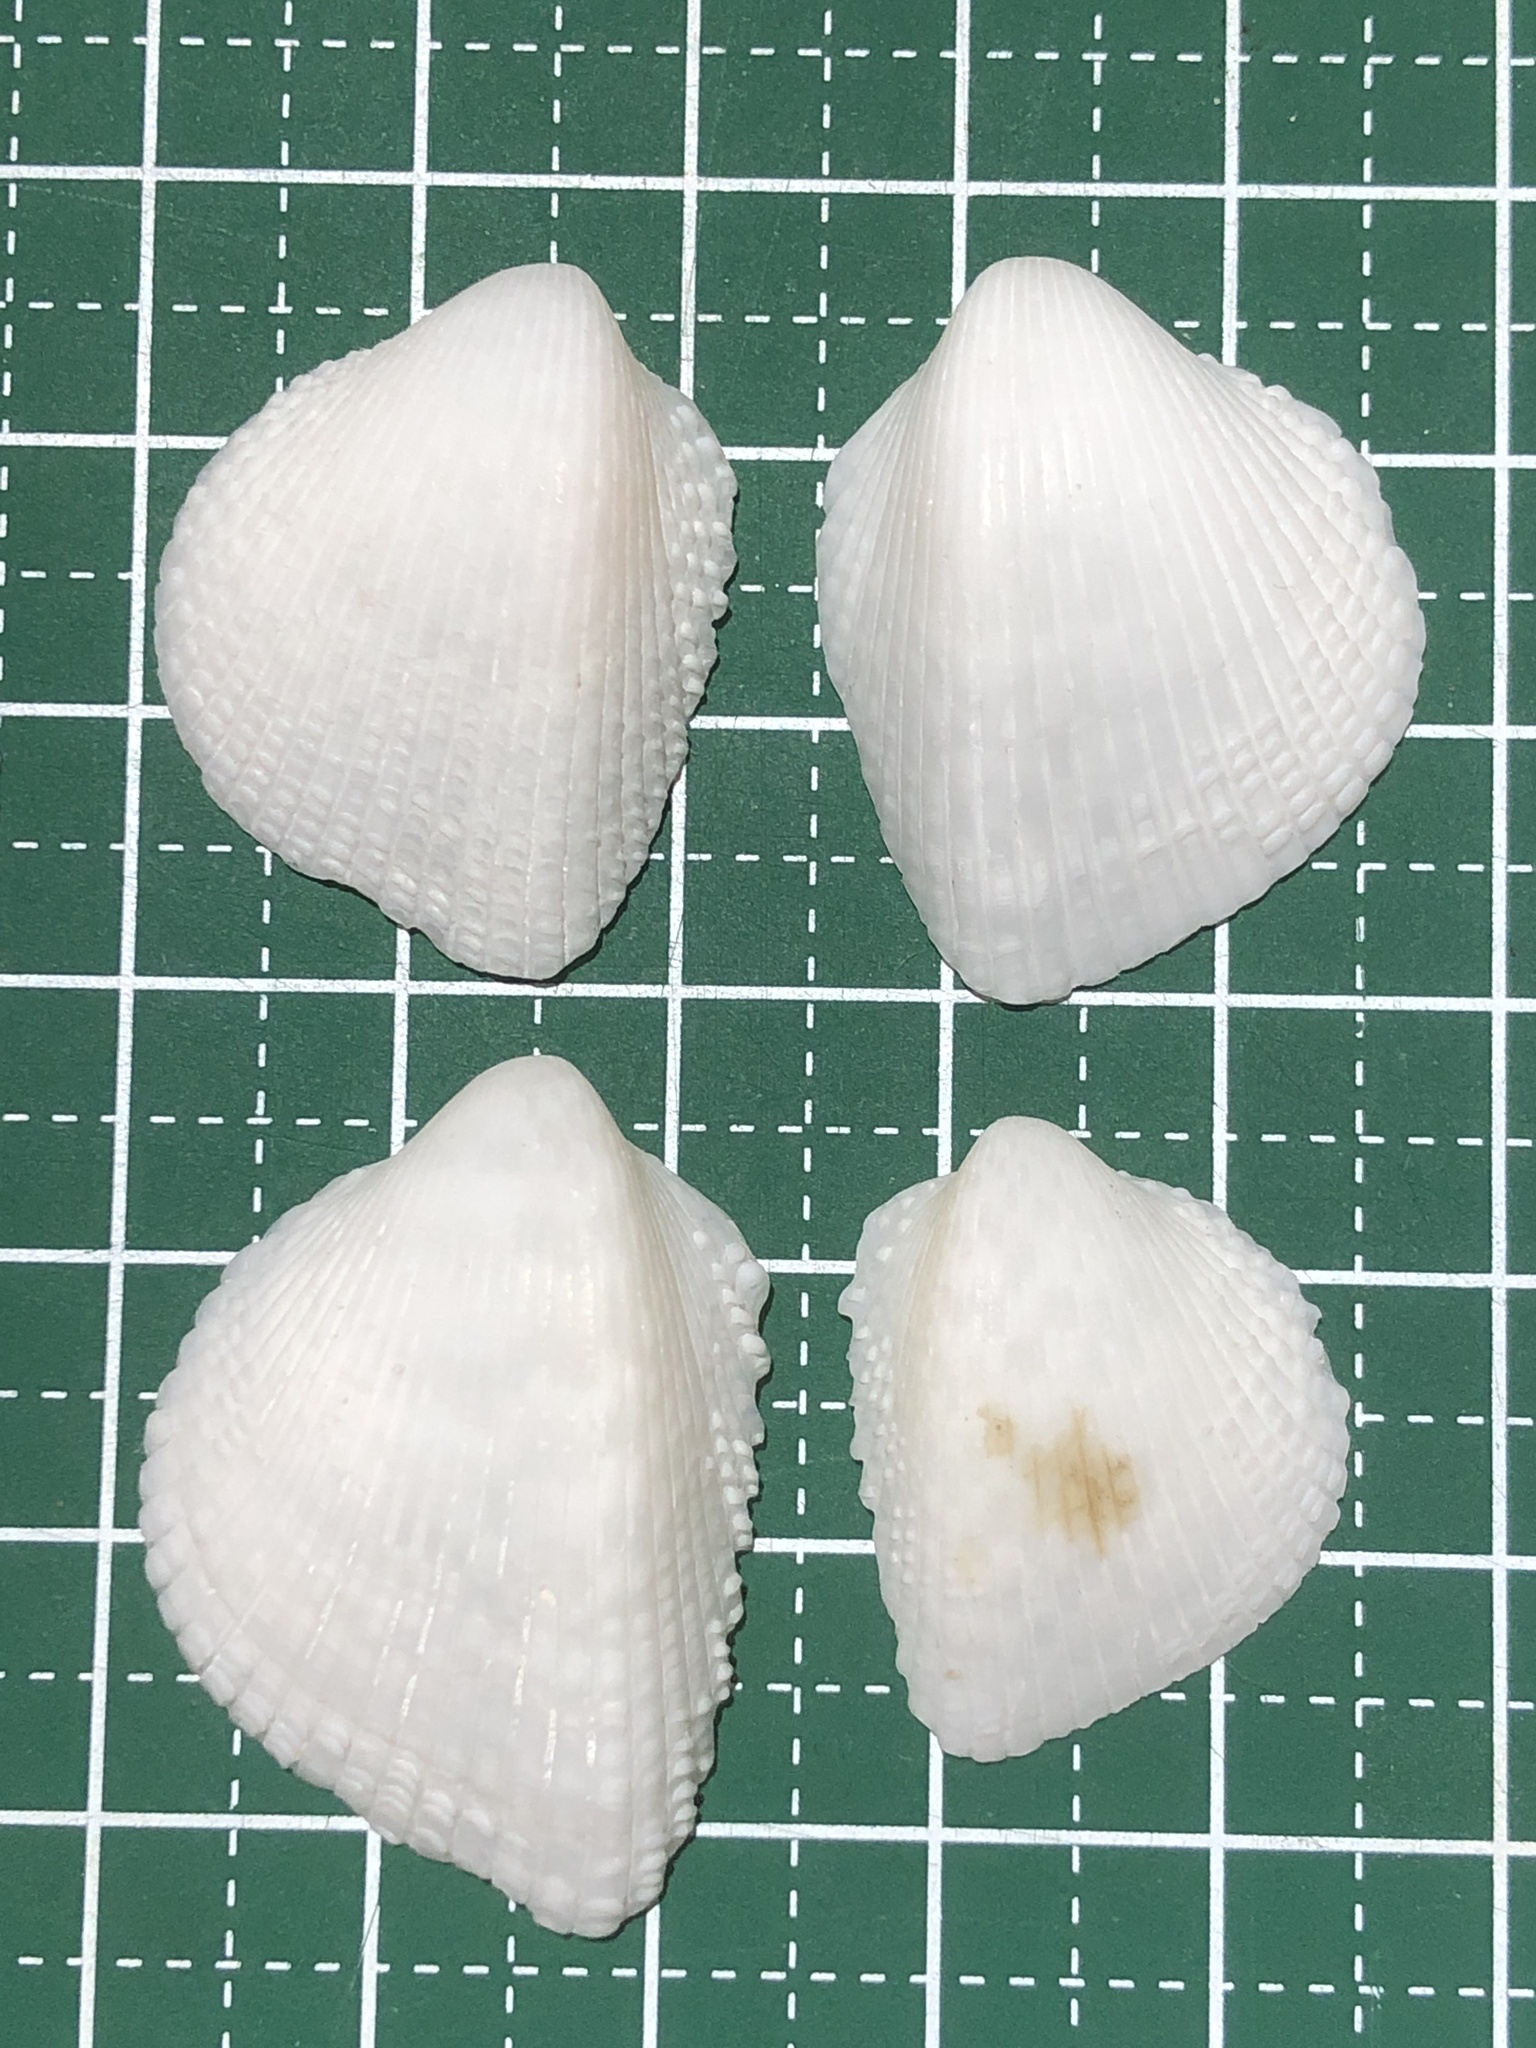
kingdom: Animalia
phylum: Mollusca
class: Bivalvia
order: Cardiida
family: Cardiidae
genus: Fragum
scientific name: Fragum fragum
